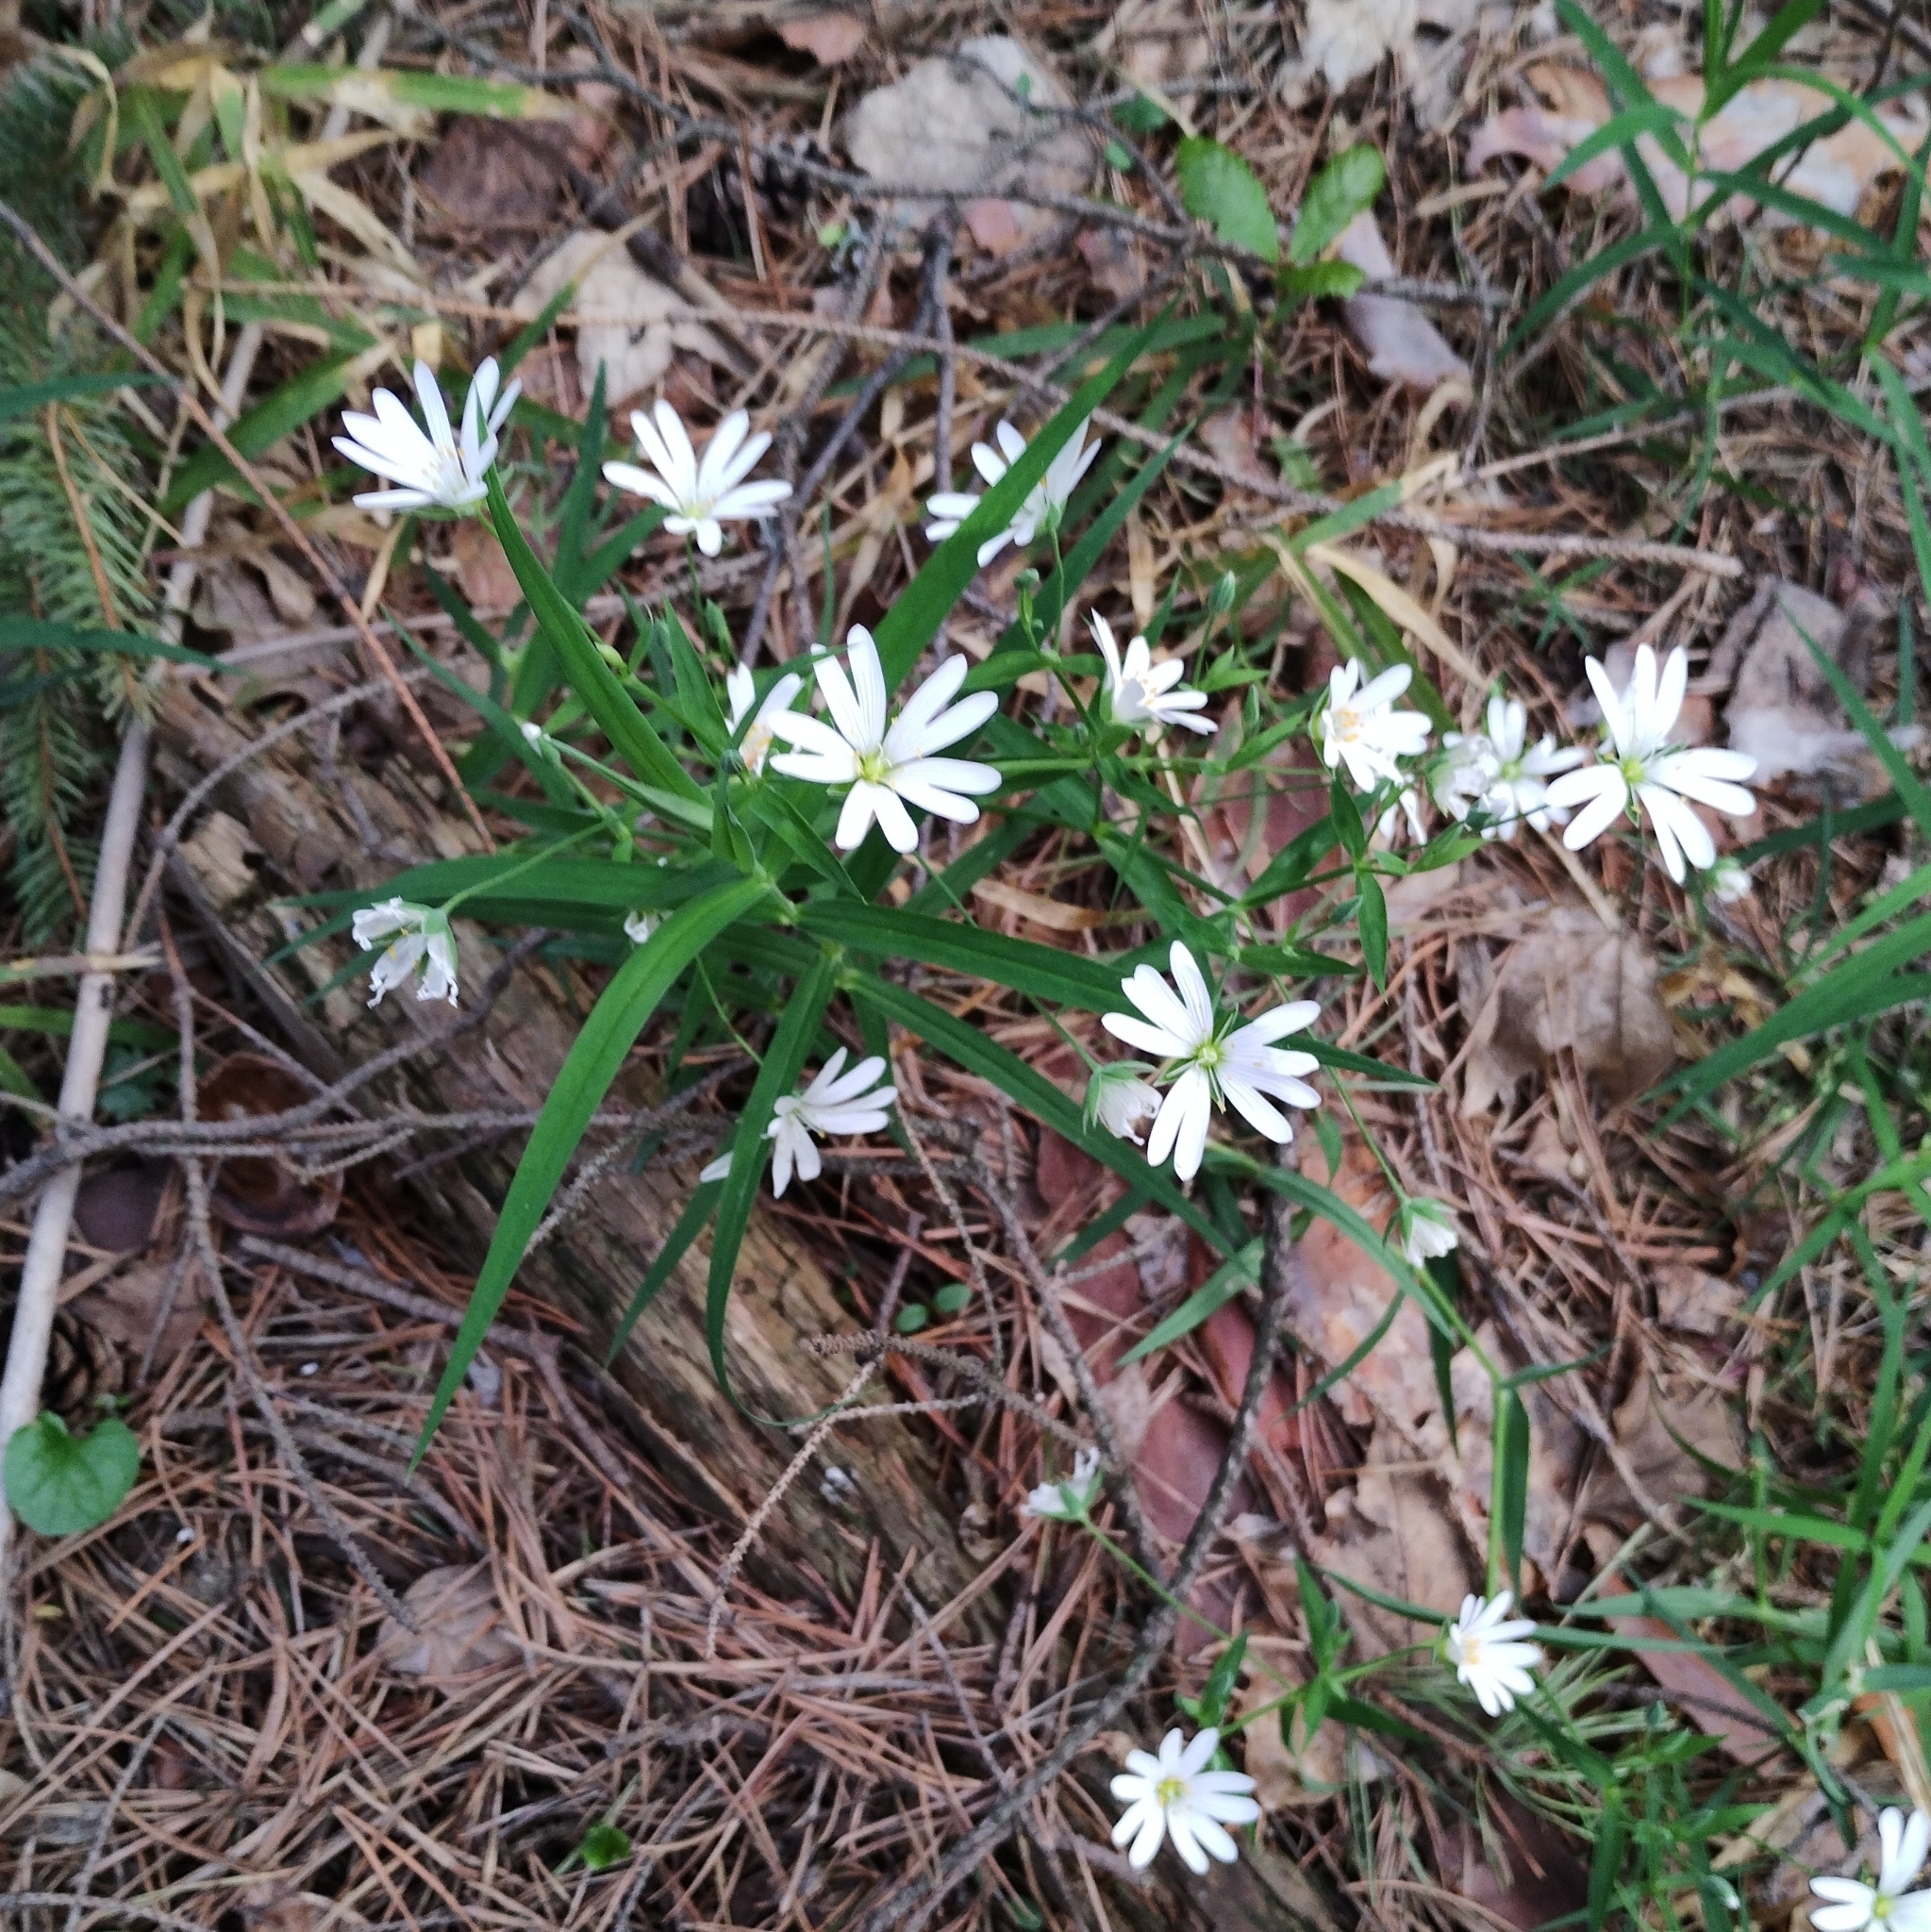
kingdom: Plantae
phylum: Tracheophyta
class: Magnoliopsida
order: Caryophyllales
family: Caryophyllaceae
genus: Rabelera
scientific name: Rabelera holostea
